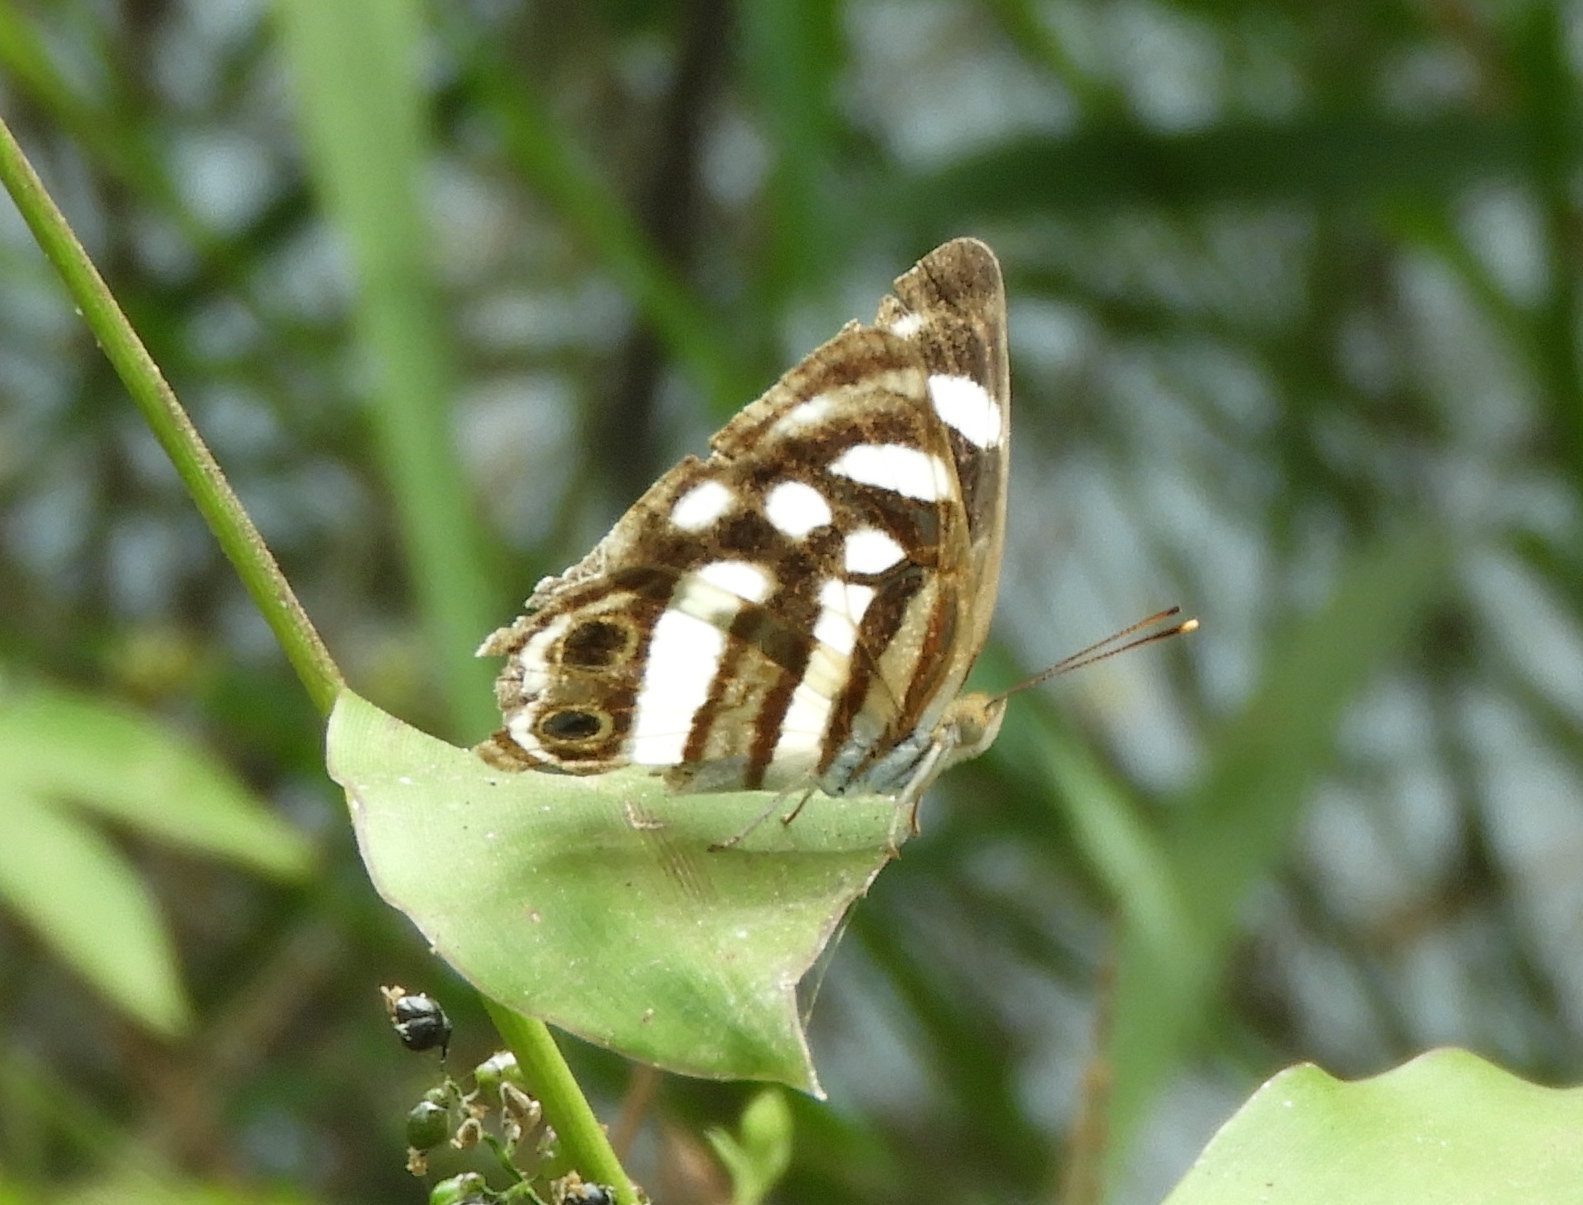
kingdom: Animalia
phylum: Arthropoda
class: Insecta
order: Lepidoptera
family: Nymphalidae
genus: Dynamine
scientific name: Dynamine mylitta
